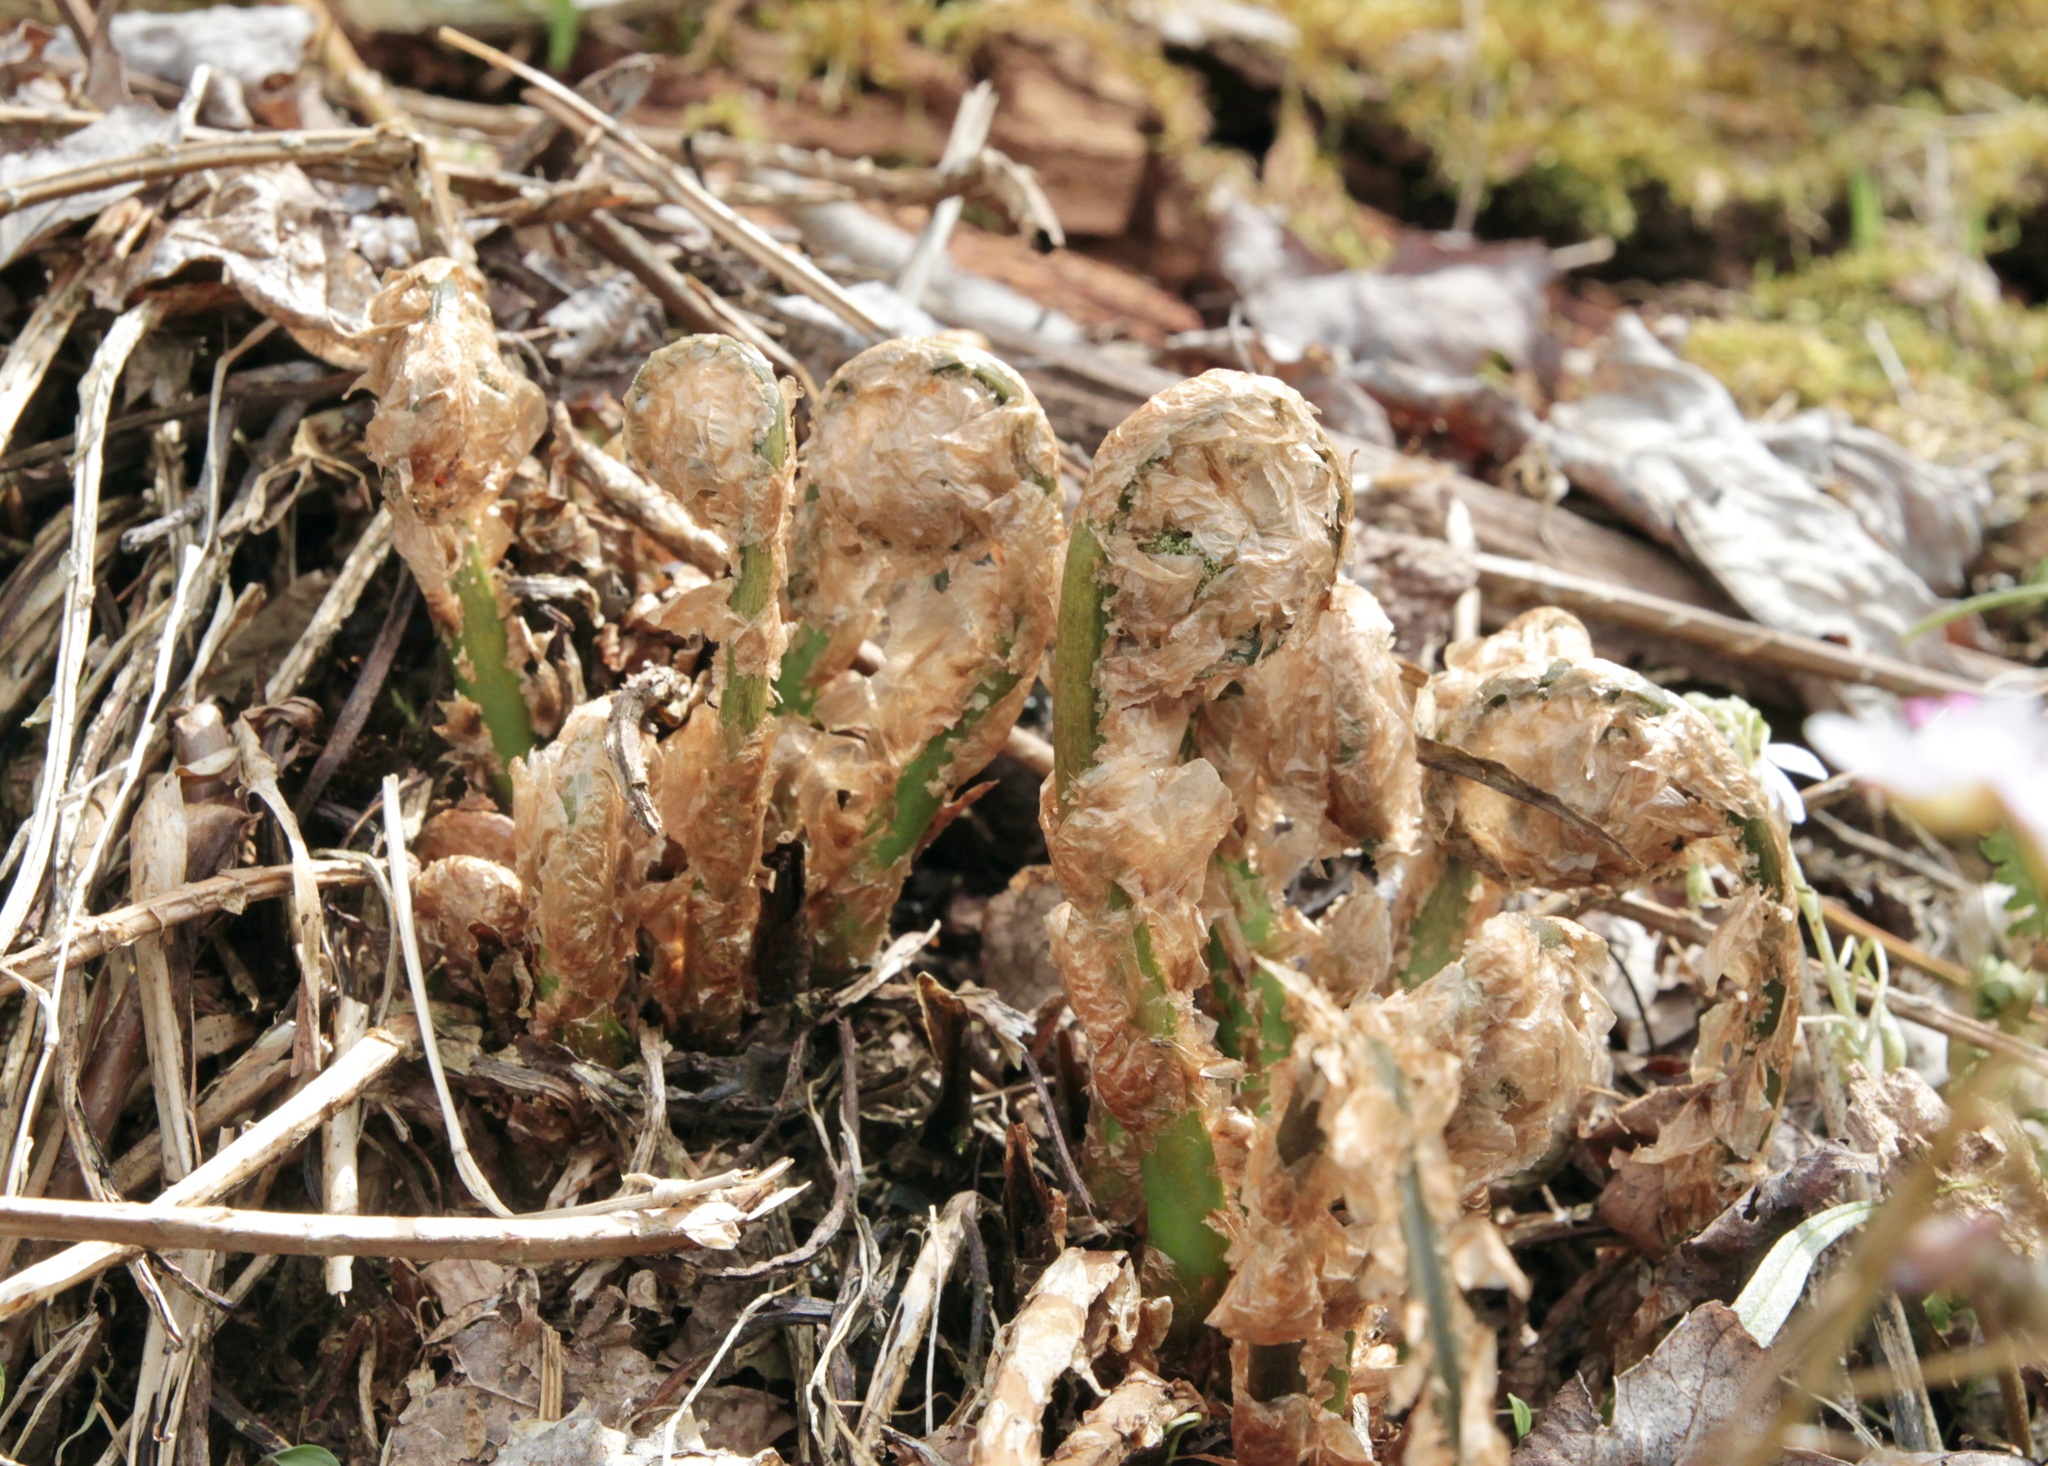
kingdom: Plantae
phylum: Tracheophyta
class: Polypodiopsida
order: Polypodiales
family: Dryopteridaceae
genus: Dryopteris
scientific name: Dryopteris intermedia
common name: Evergreen wood fern
